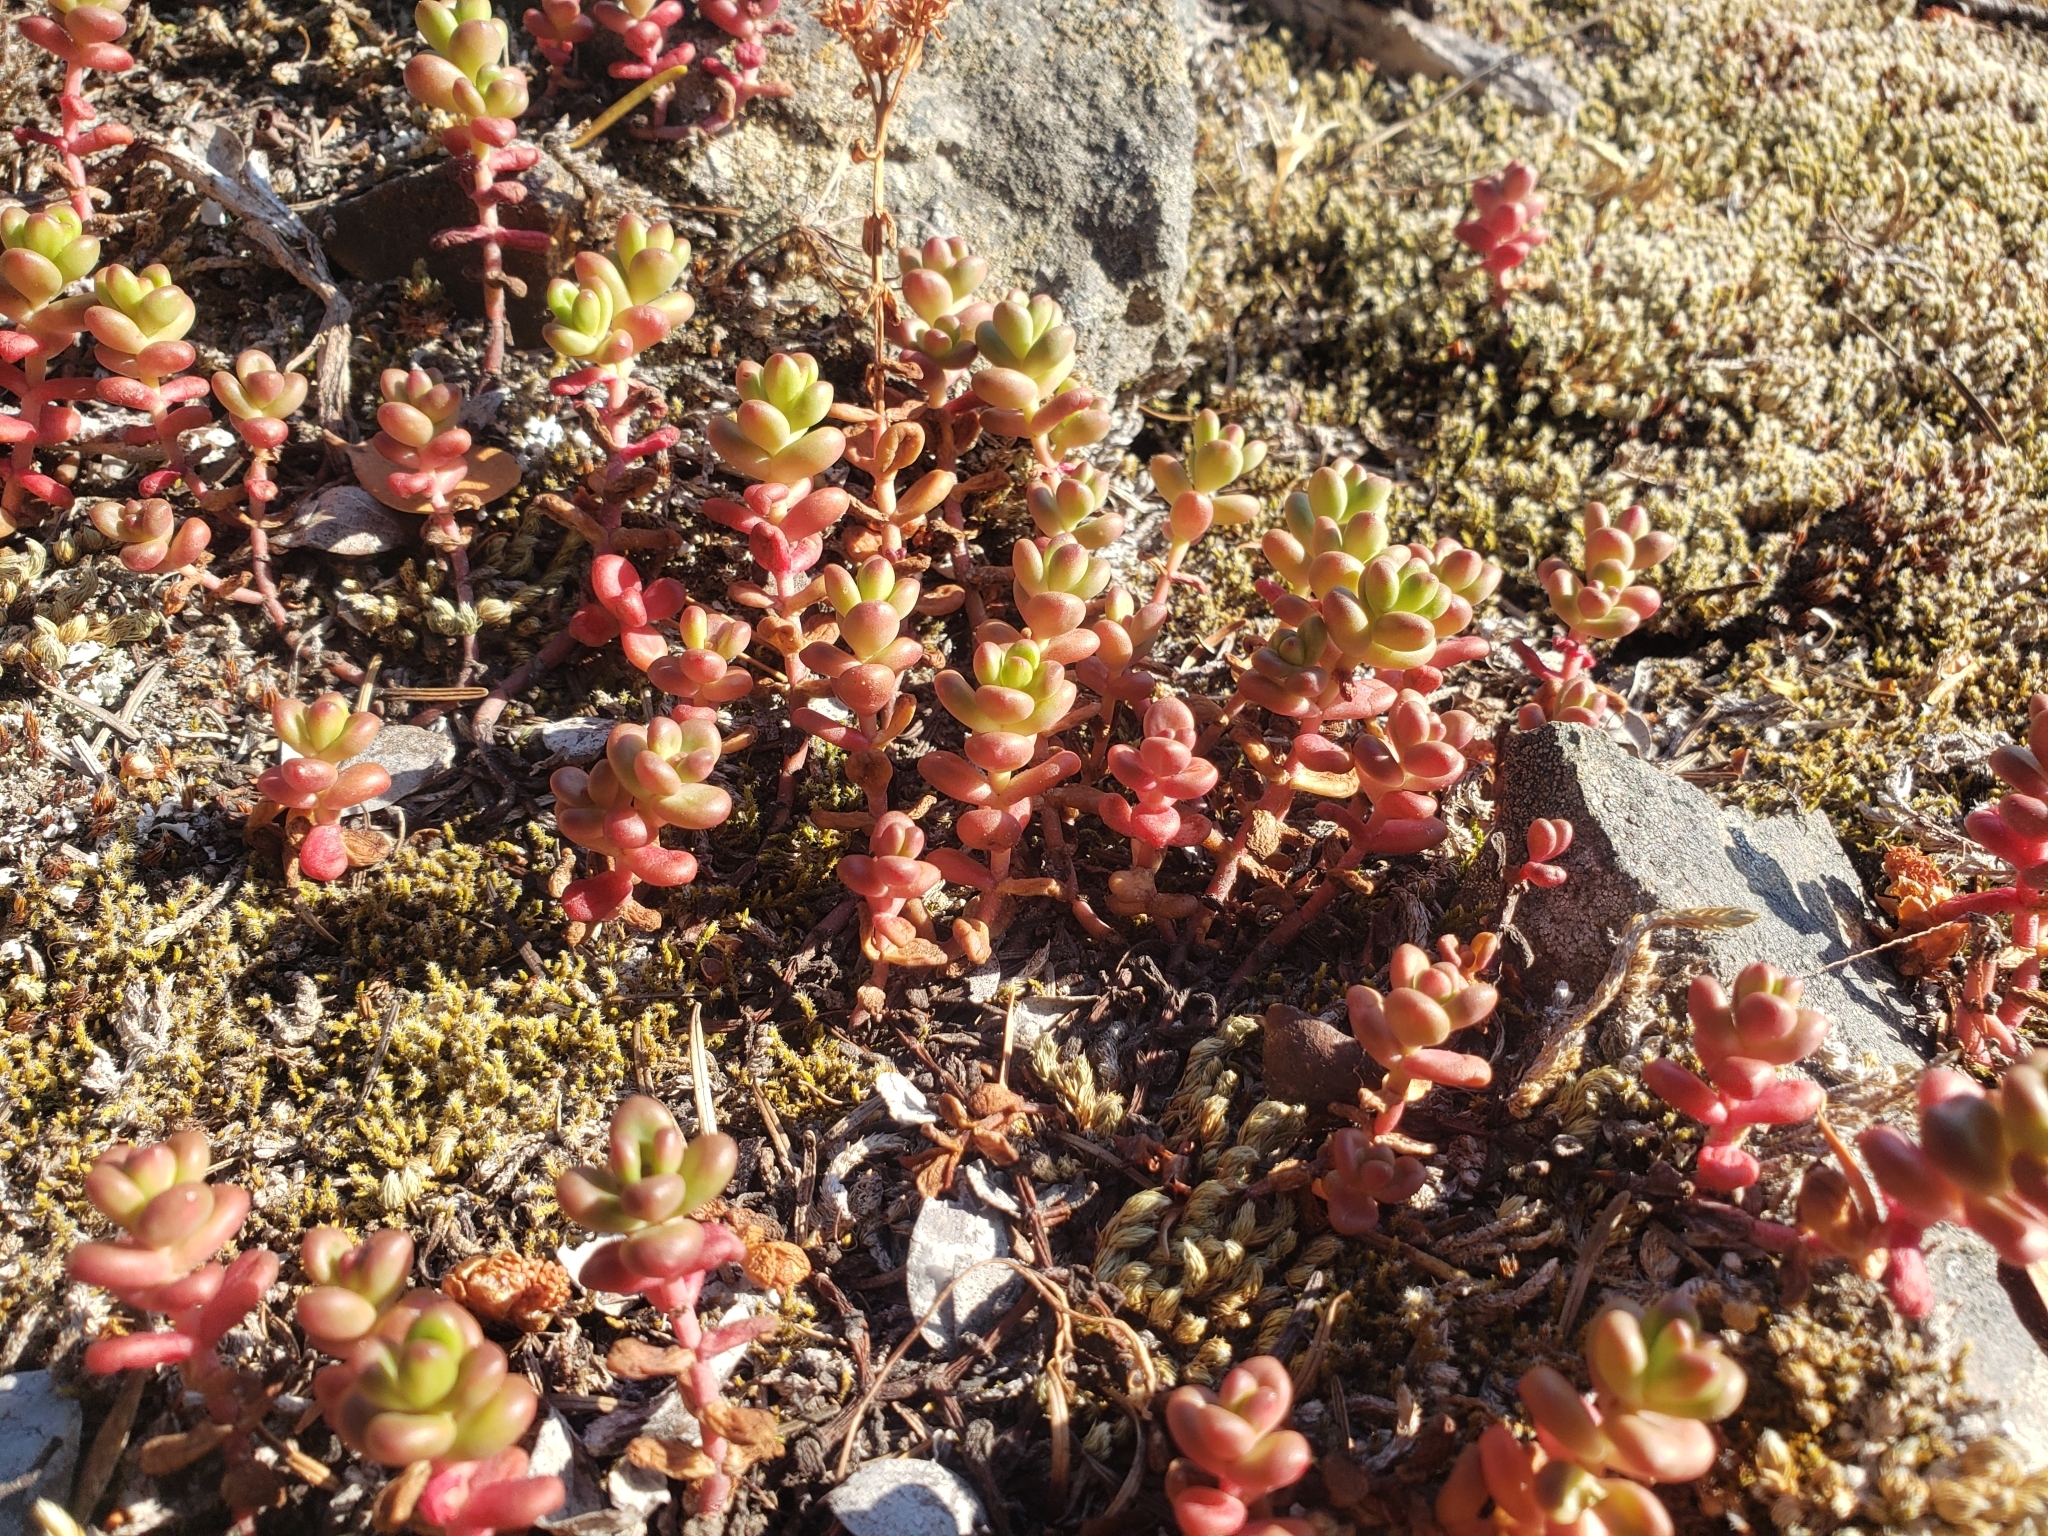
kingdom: Plantae
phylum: Tracheophyta
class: Magnoliopsida
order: Saxifragales
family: Crassulaceae
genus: Sedum
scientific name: Sedum divergens
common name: Cascade stonecrop
